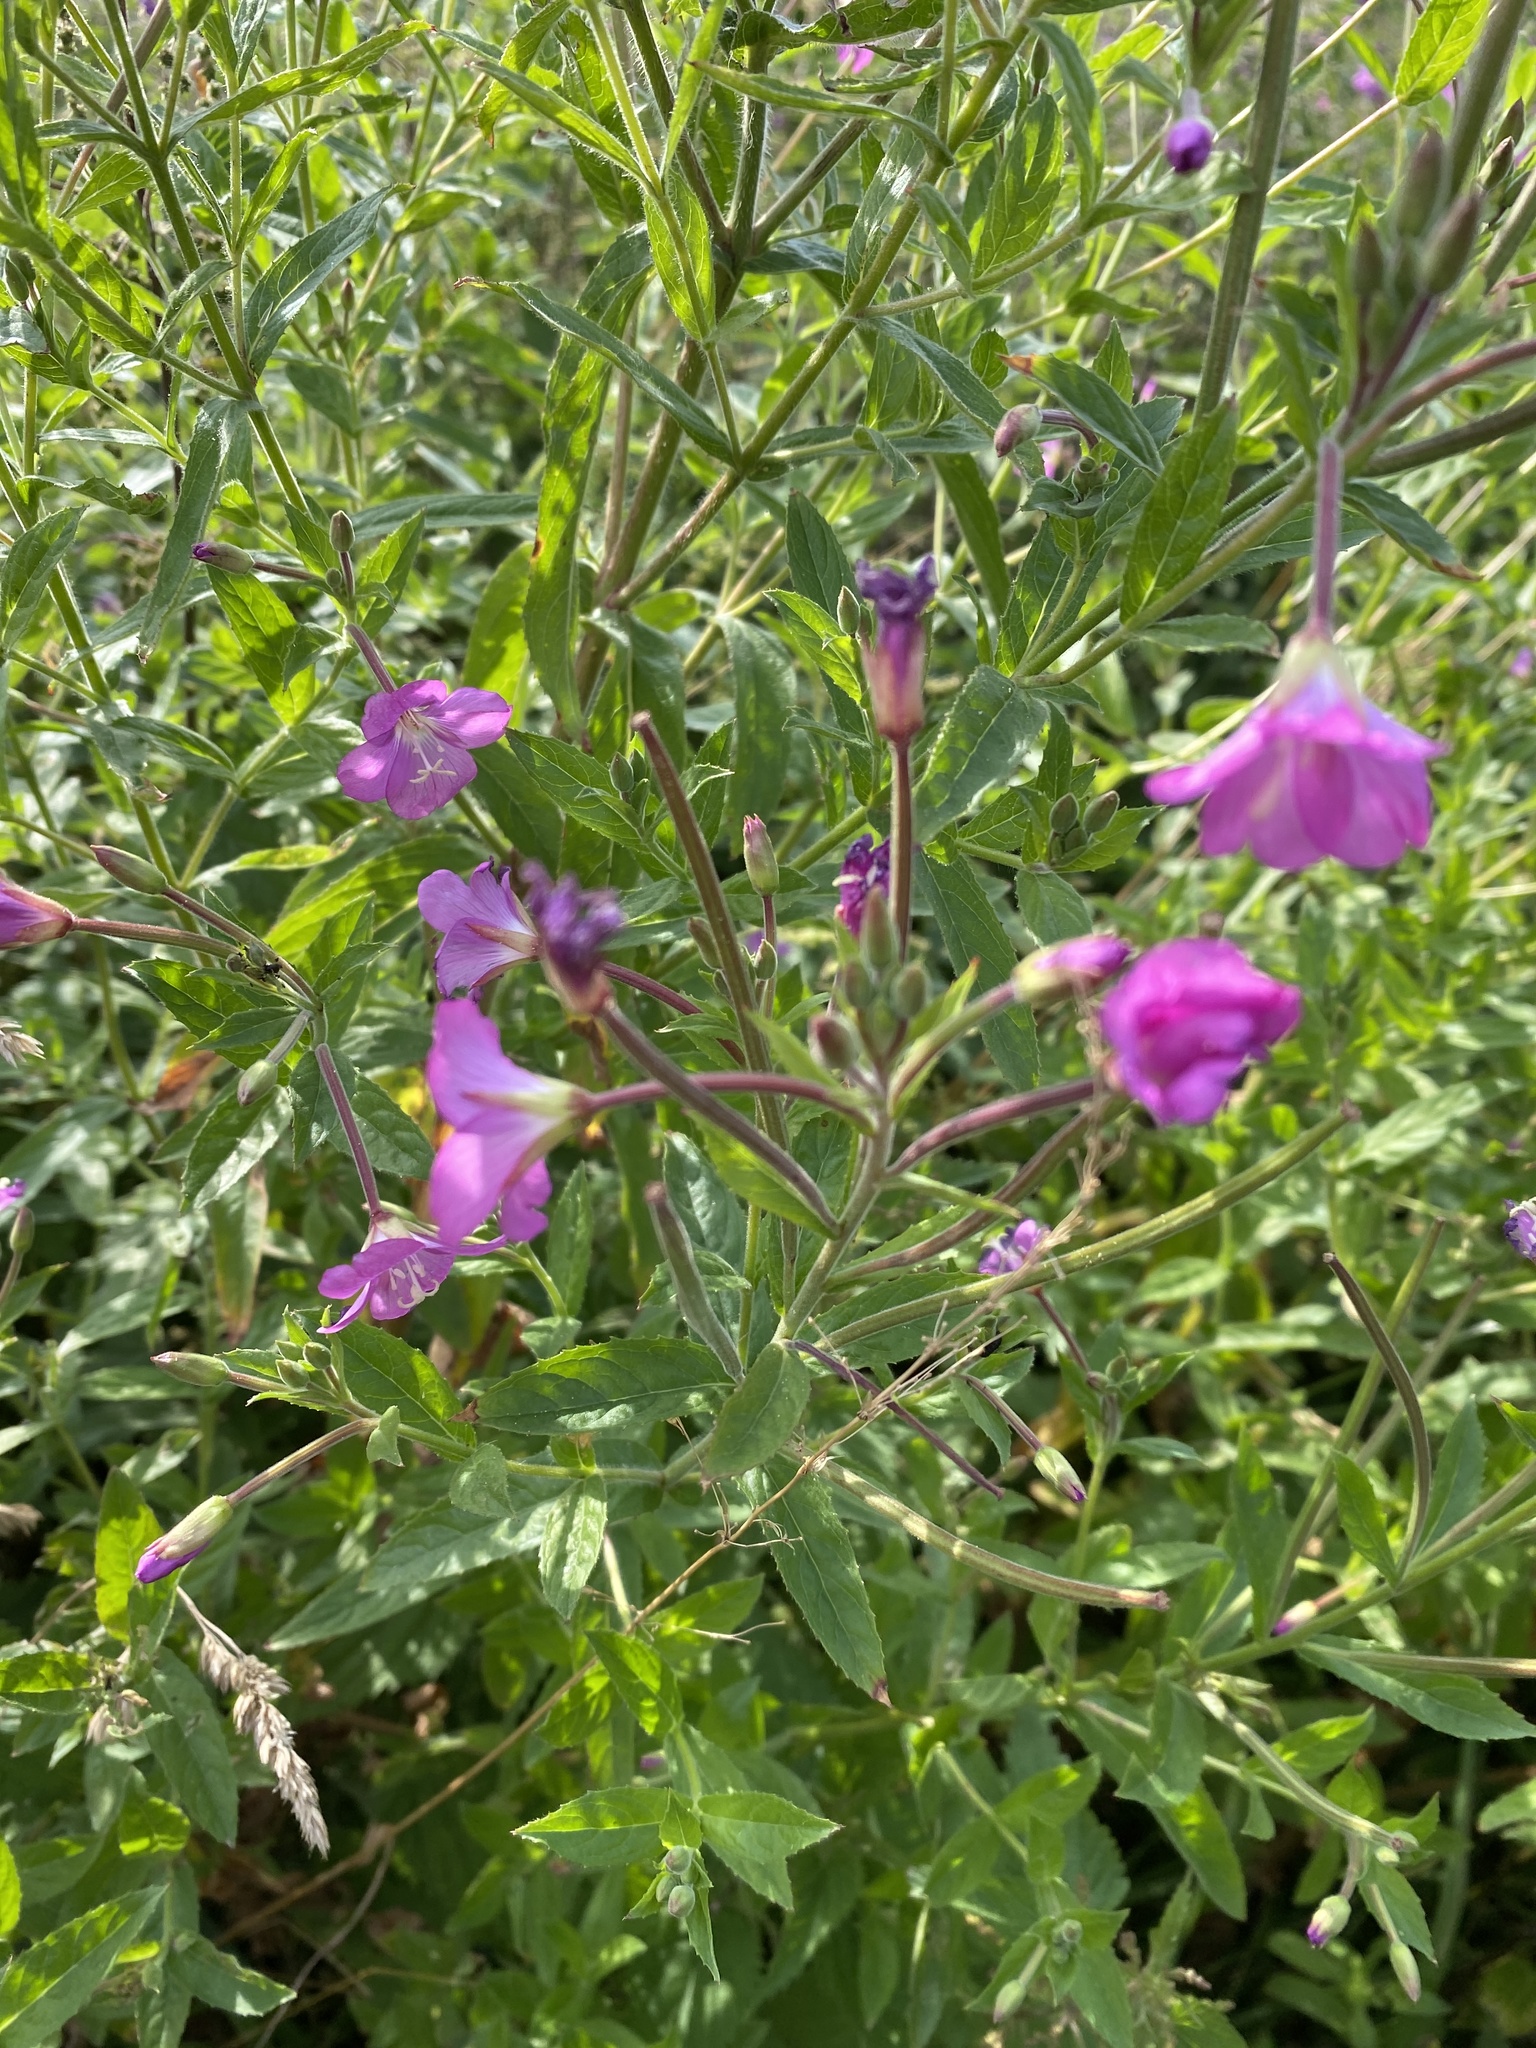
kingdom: Plantae
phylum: Tracheophyta
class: Magnoliopsida
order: Myrtales
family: Onagraceae
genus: Epilobium
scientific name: Epilobium hirsutum
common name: Great willowherb
